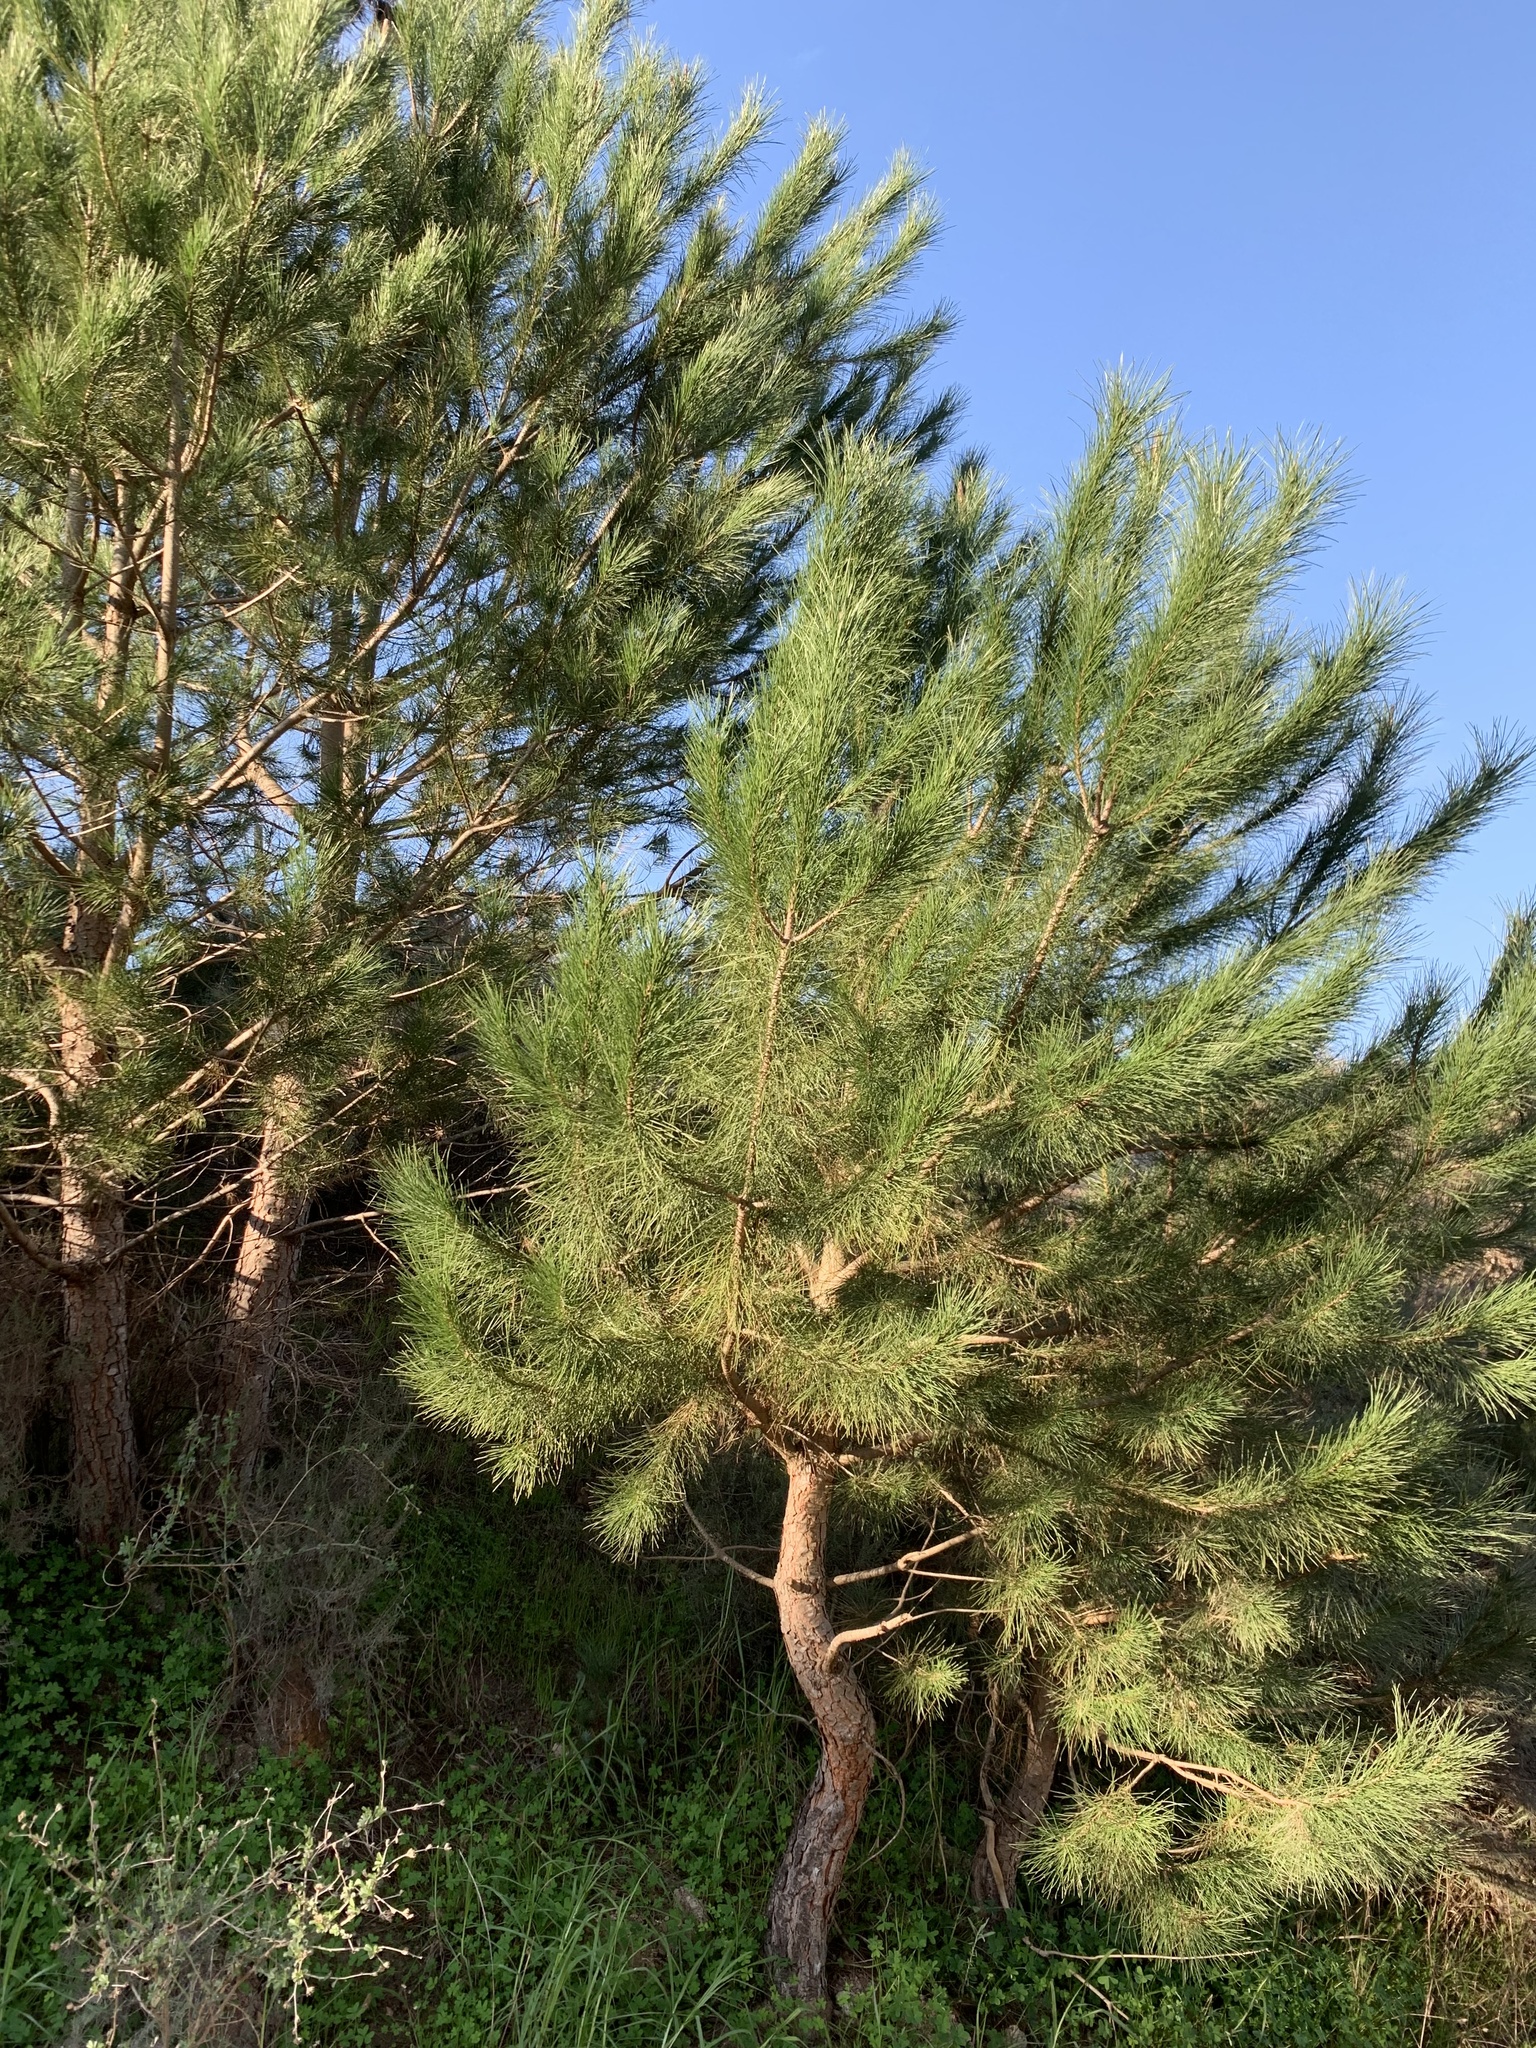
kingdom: Plantae
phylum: Tracheophyta
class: Pinopsida
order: Pinales
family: Pinaceae
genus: Pinus
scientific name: Pinus pinaster
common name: Maritime pine
